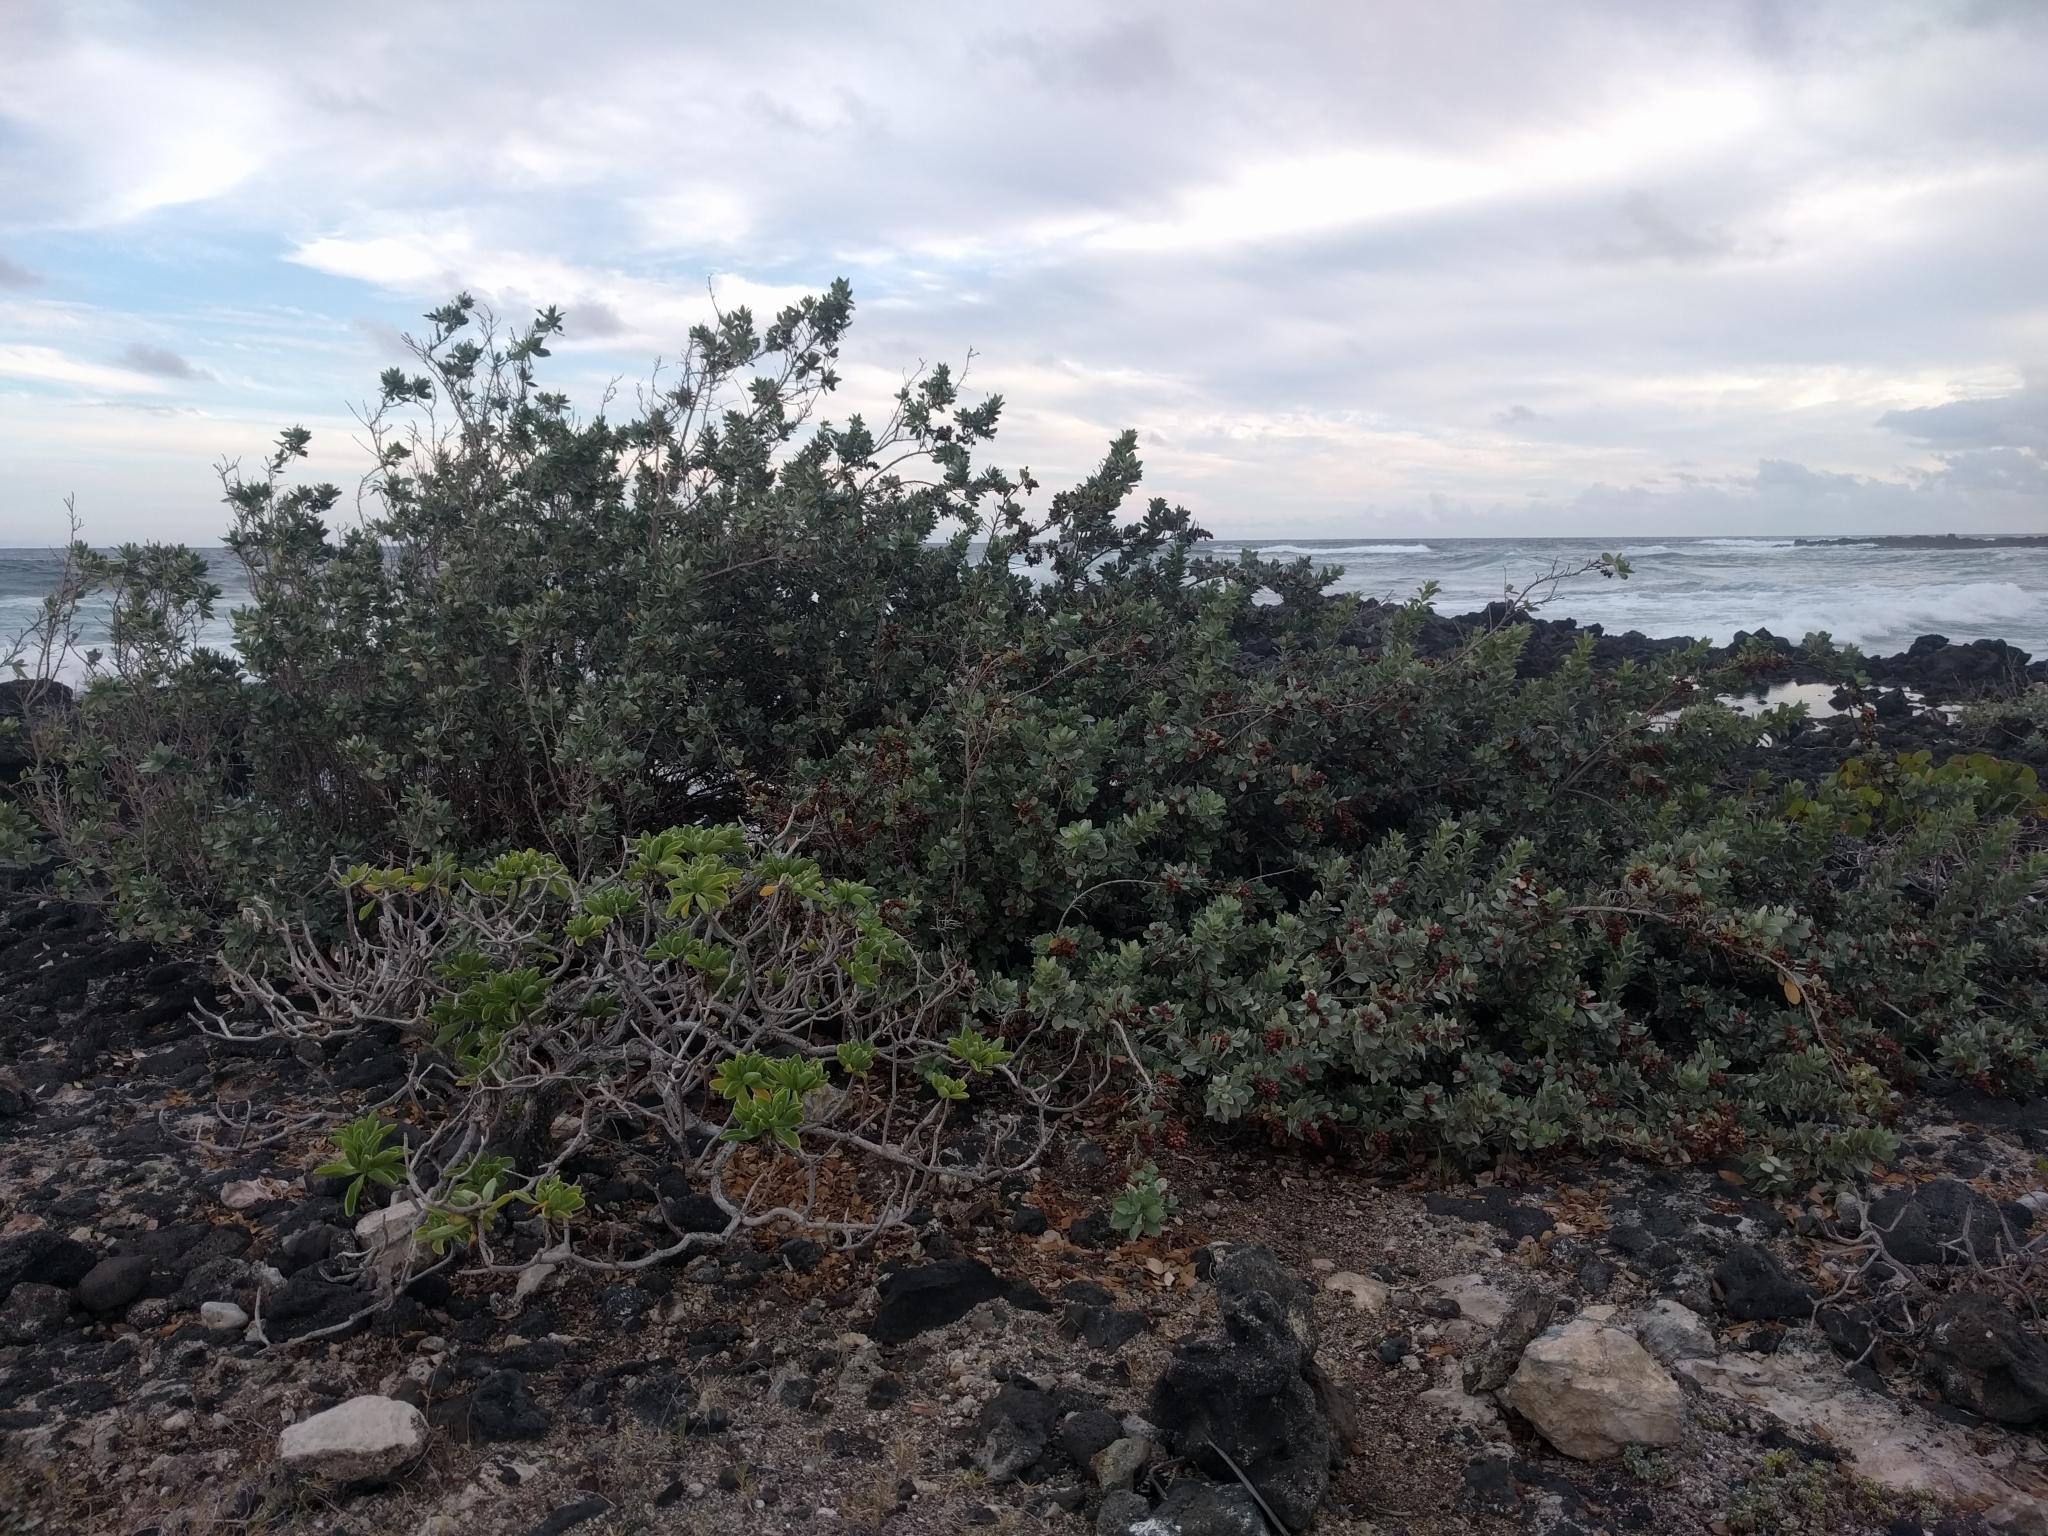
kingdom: Plantae
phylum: Tracheophyta
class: Magnoliopsida
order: Myrtales
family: Combretaceae
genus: Conocarpus
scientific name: Conocarpus erectus
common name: Button mangrove
